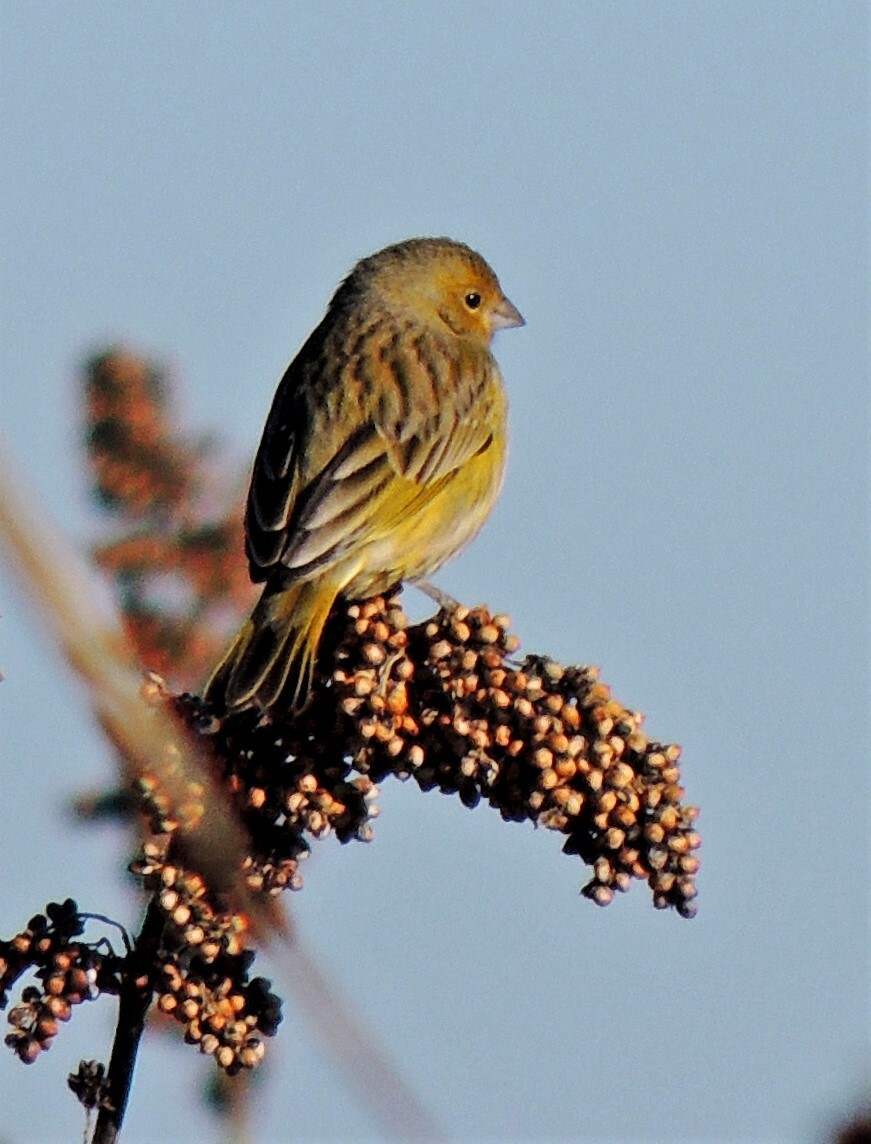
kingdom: Animalia
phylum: Chordata
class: Aves
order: Passeriformes
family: Thraupidae
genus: Sicalis
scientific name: Sicalis flaveola
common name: Saffron finch
